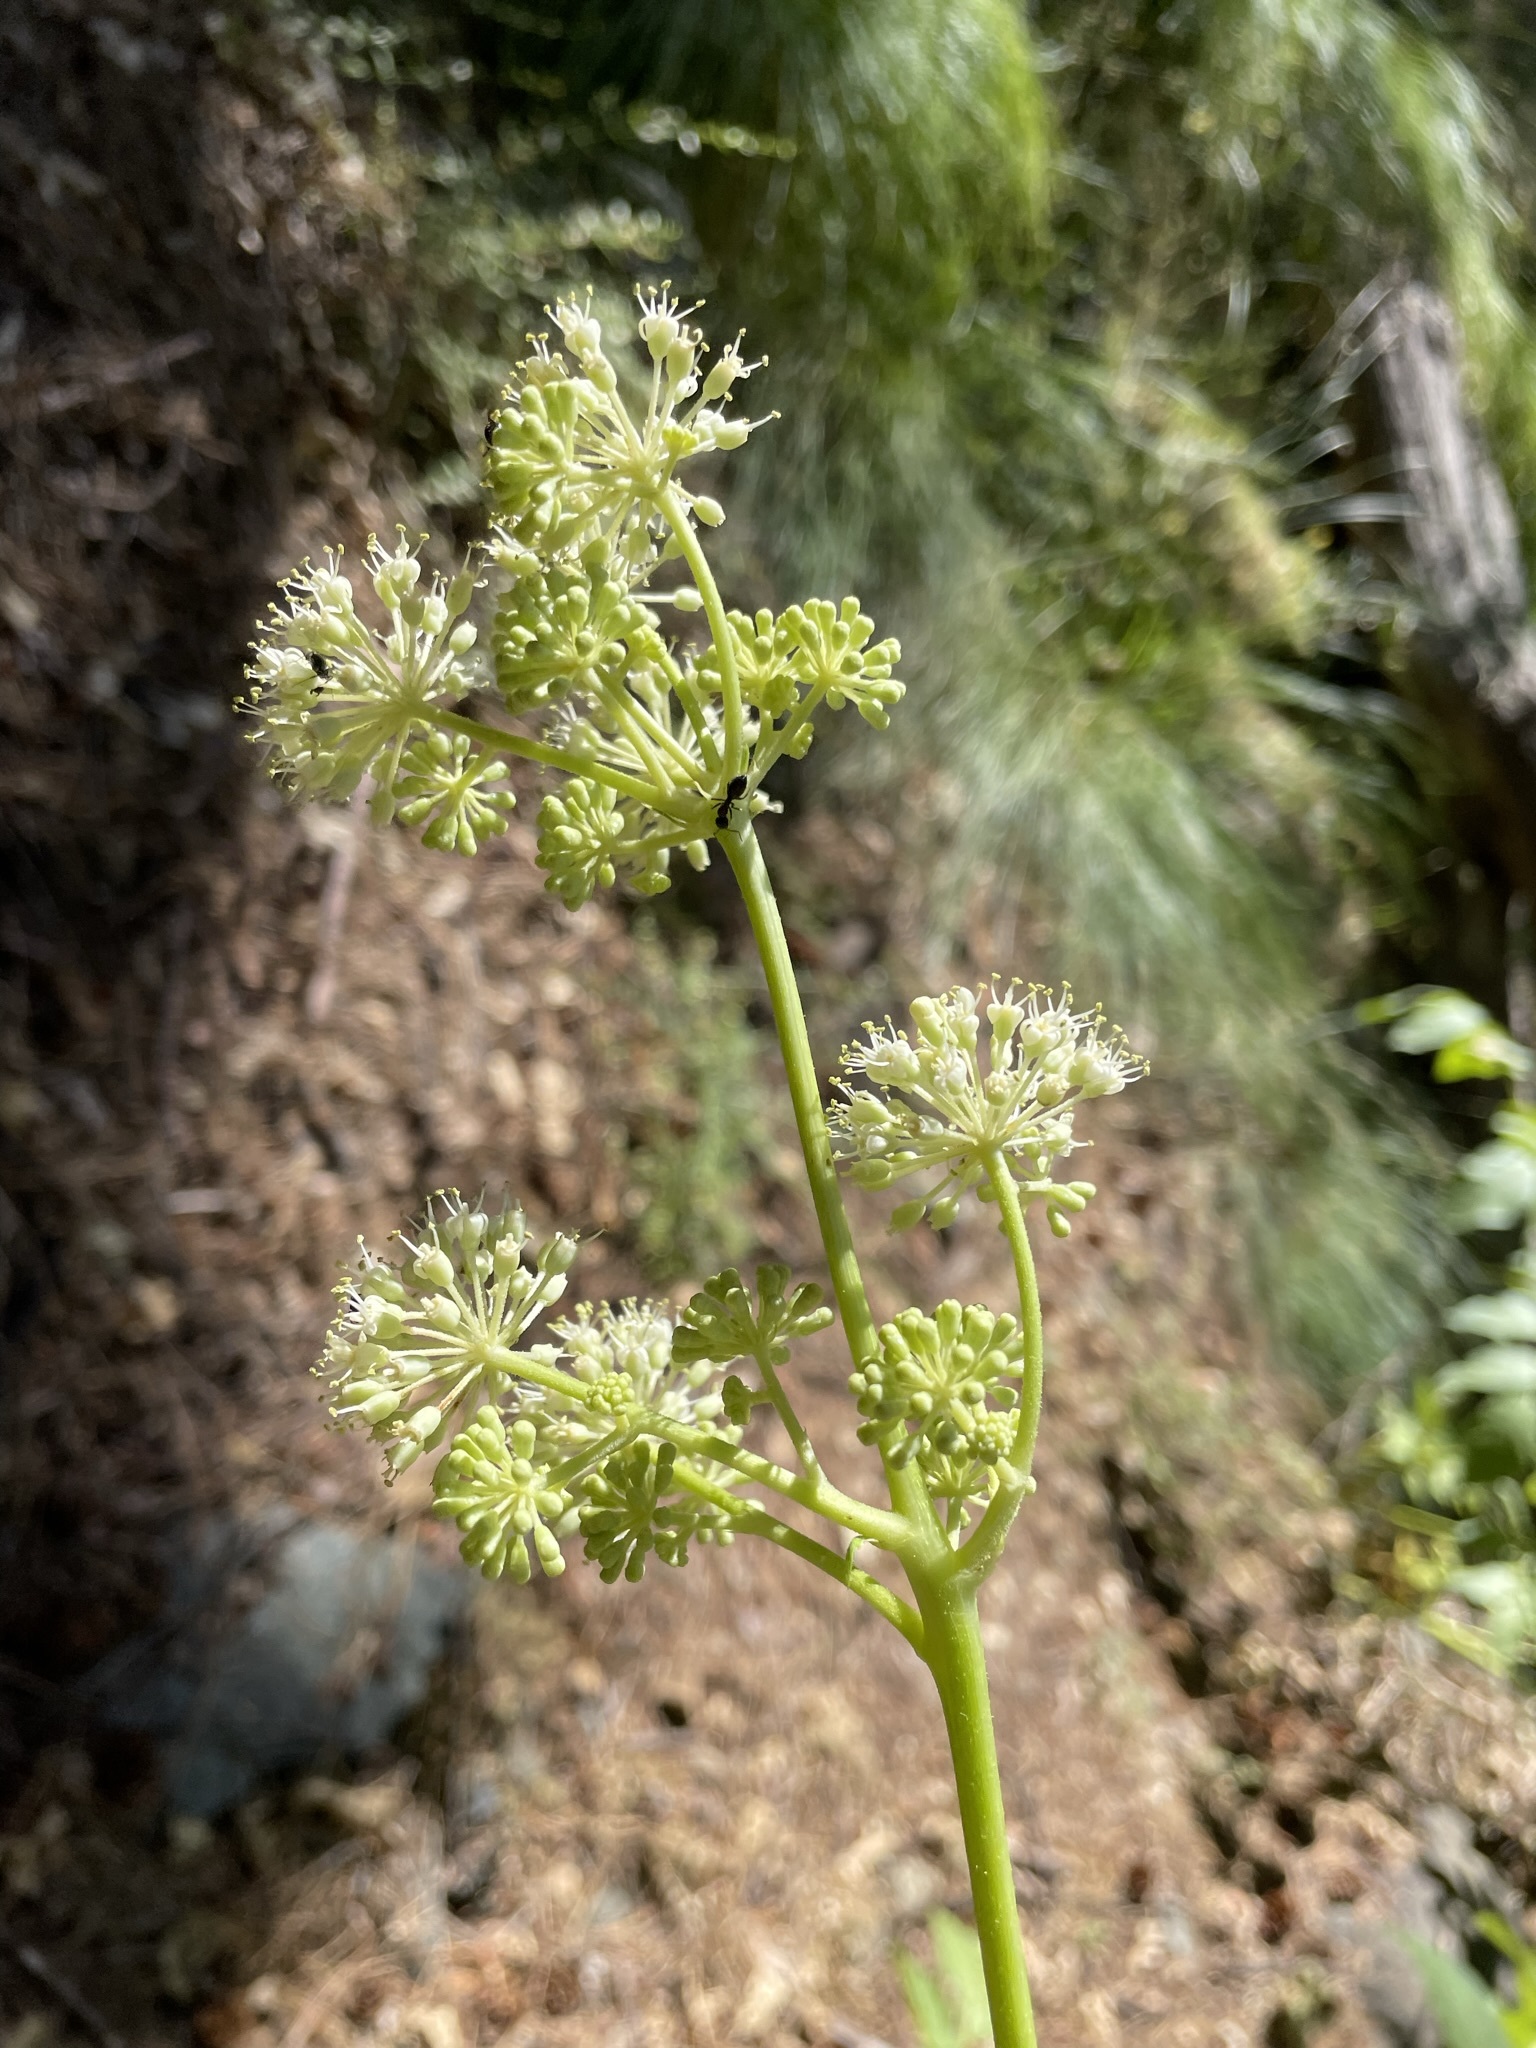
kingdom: Plantae
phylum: Tracheophyta
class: Magnoliopsida
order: Apiales
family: Araliaceae
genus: Aralia
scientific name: Aralia californica
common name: California-ginseng
